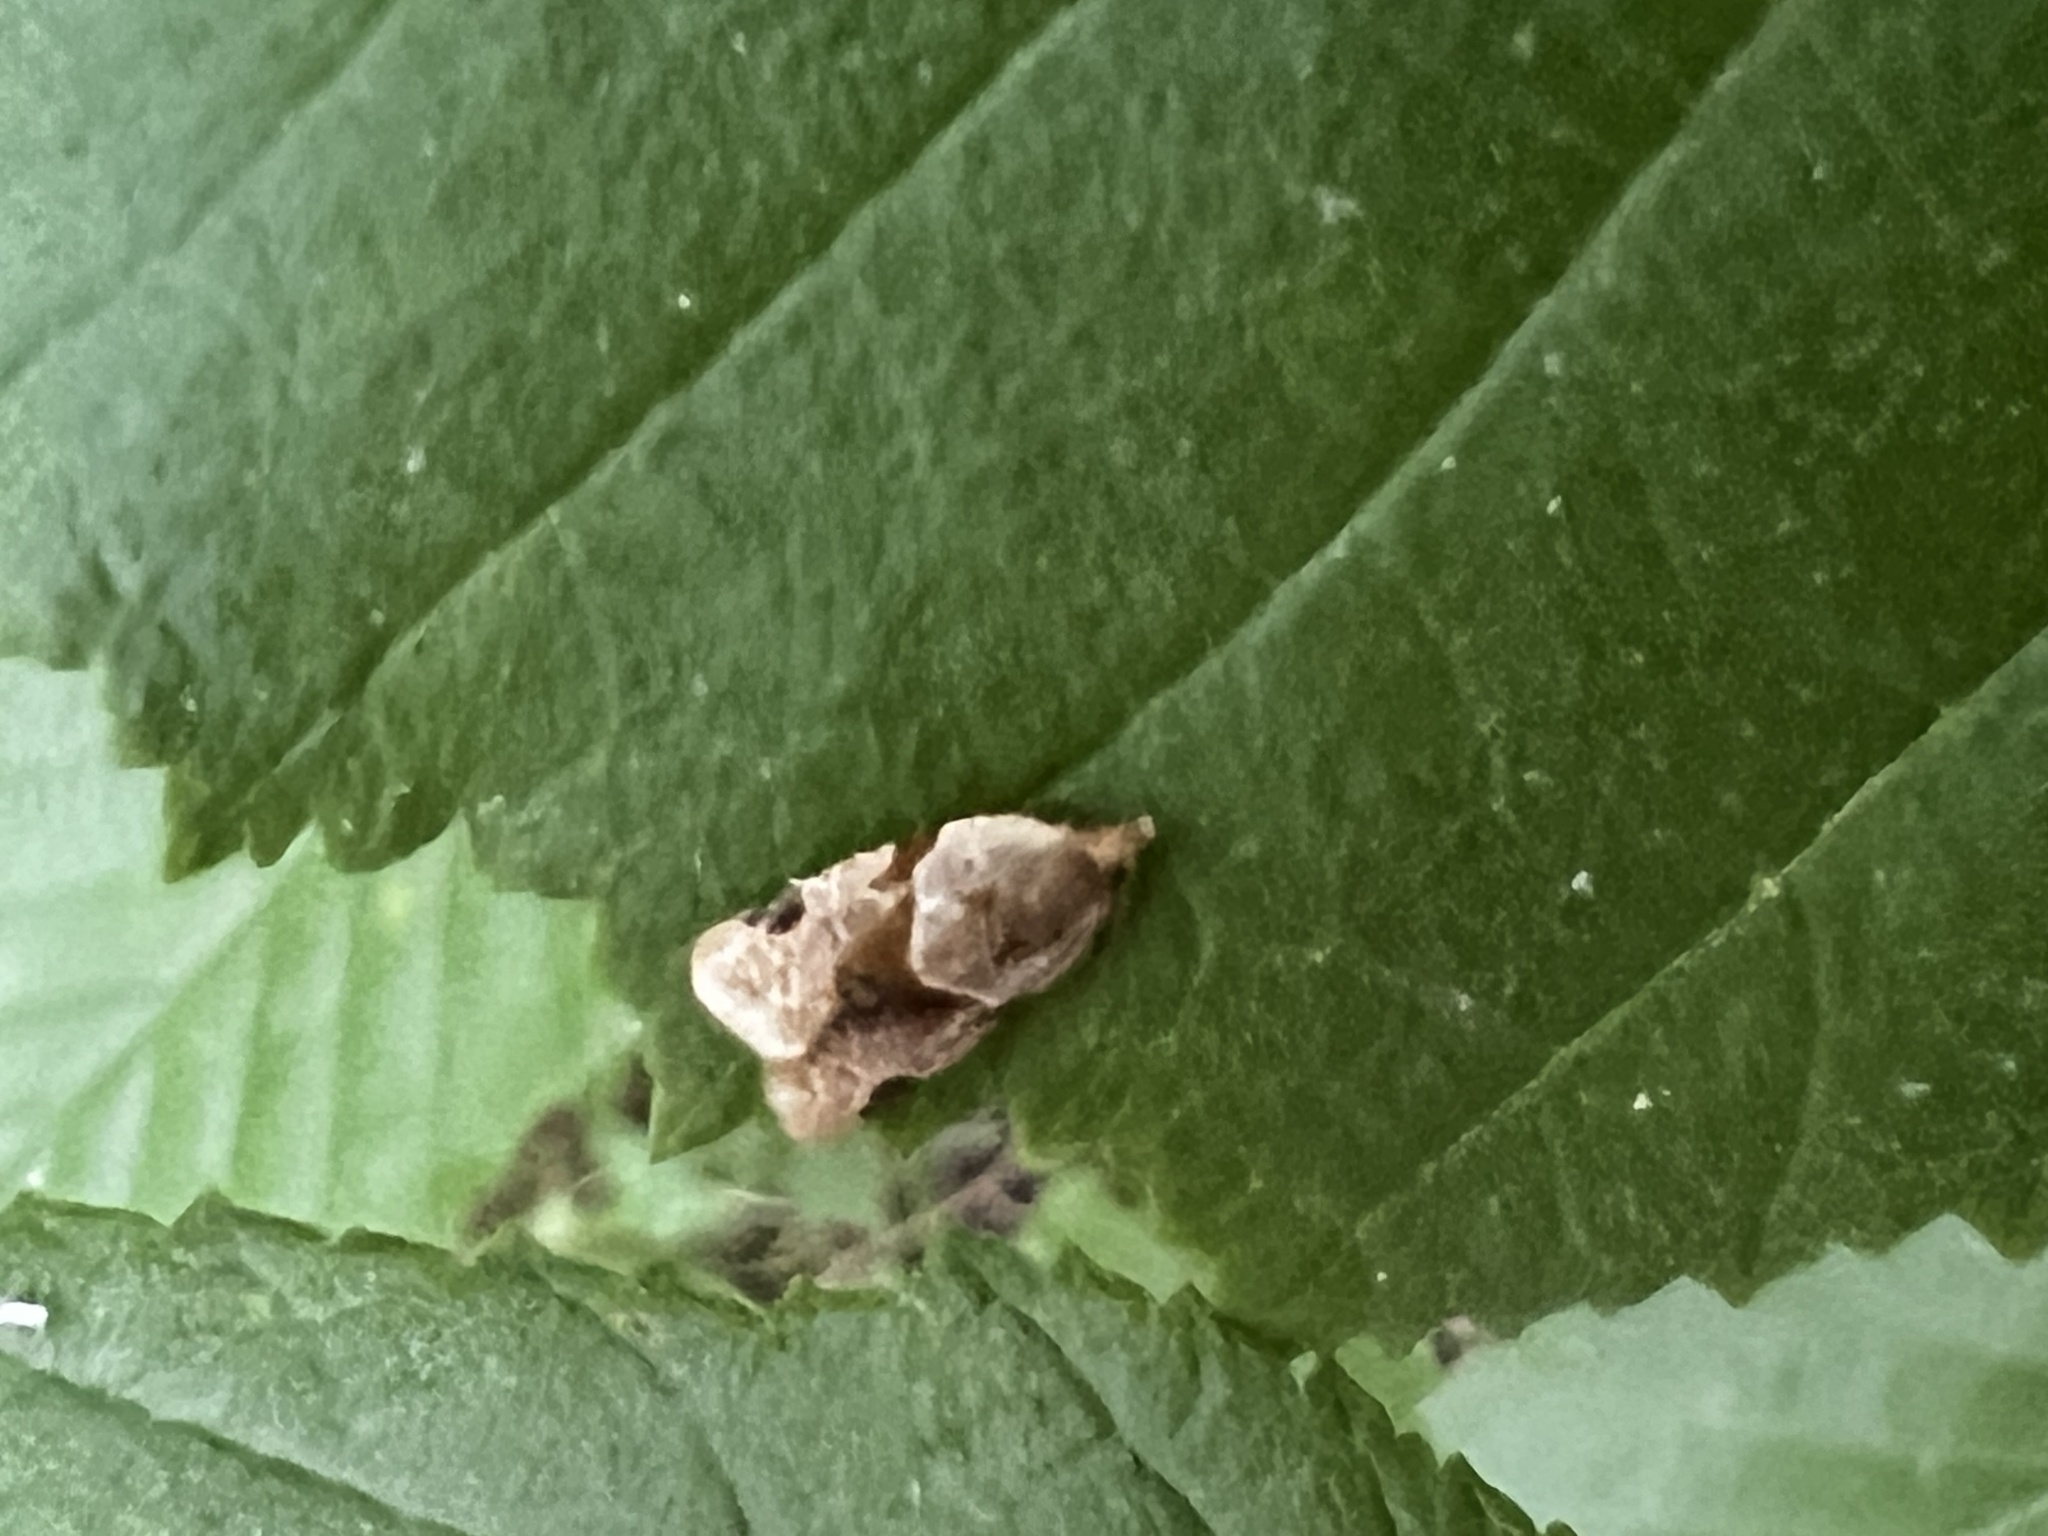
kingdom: Animalia
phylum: Arthropoda
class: Insecta
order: Lepidoptera
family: Tortricidae
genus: Clepsis
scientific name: Clepsis peritana
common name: Garden tortrix
